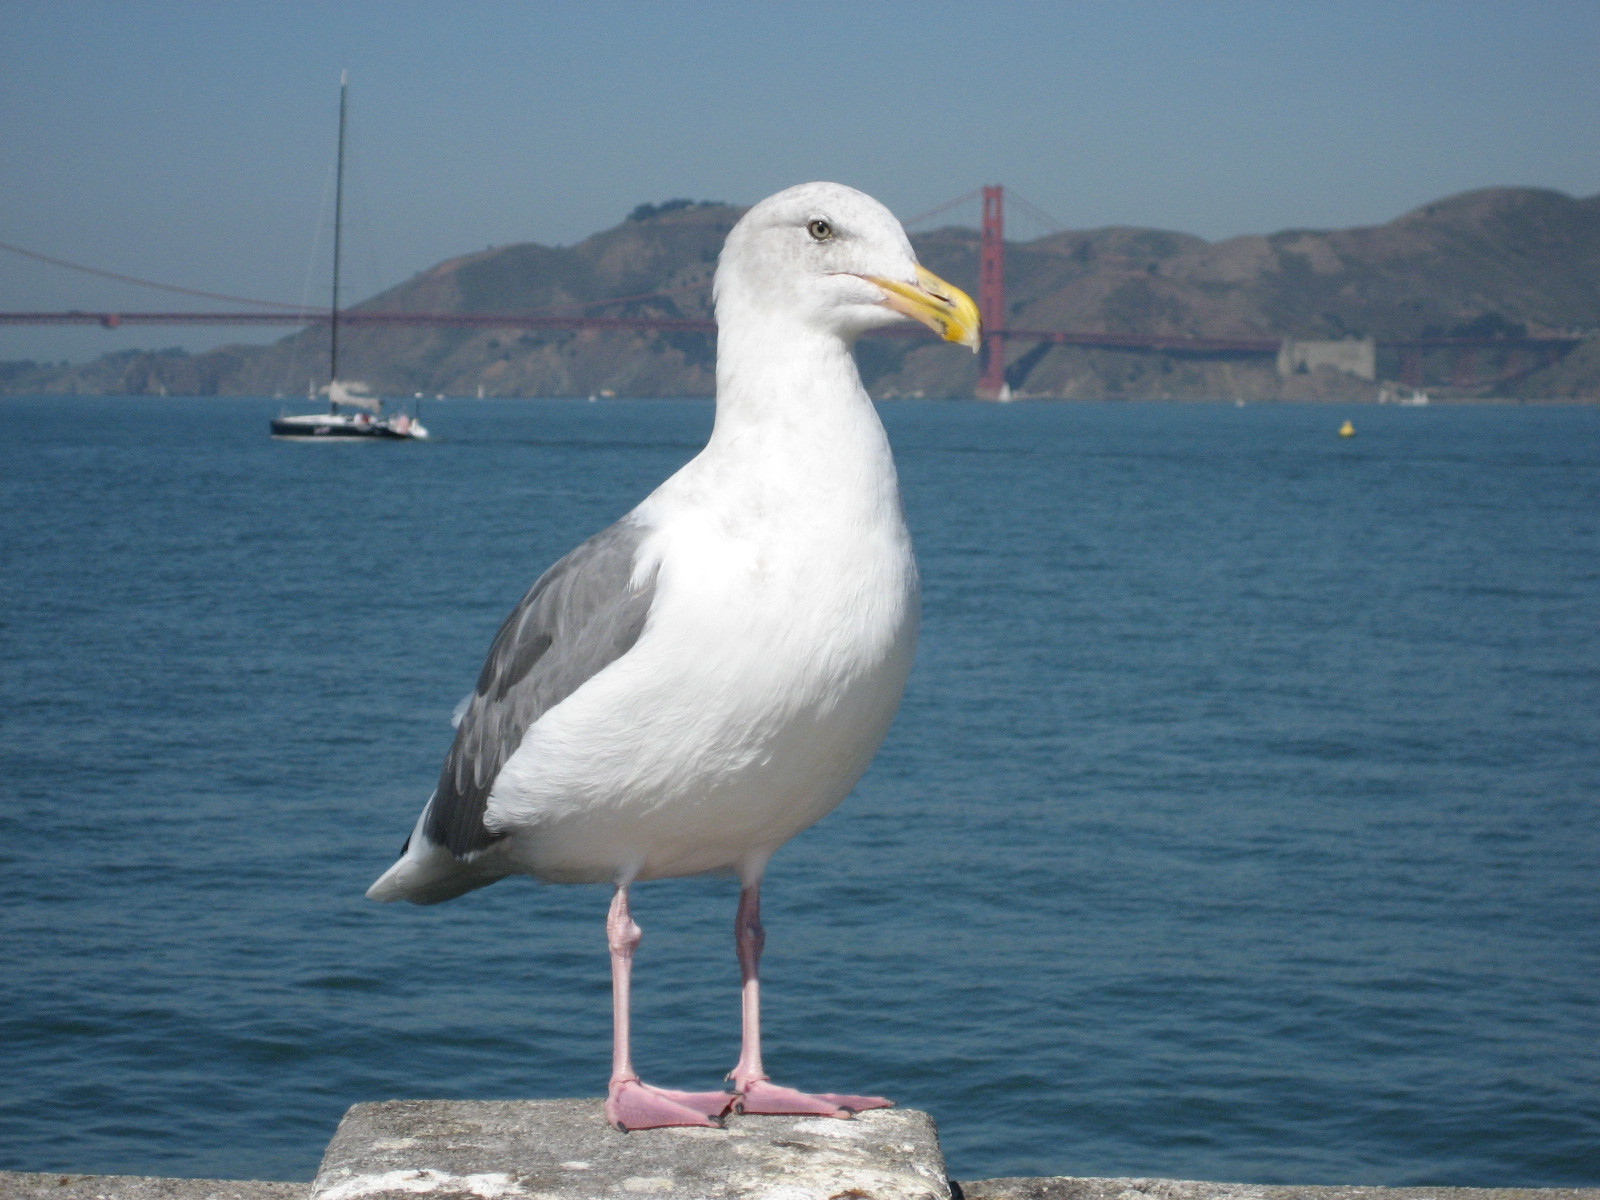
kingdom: Animalia
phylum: Chordata
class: Aves
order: Charadriiformes
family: Laridae
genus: Larus
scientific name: Larus occidentalis
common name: Western gull
